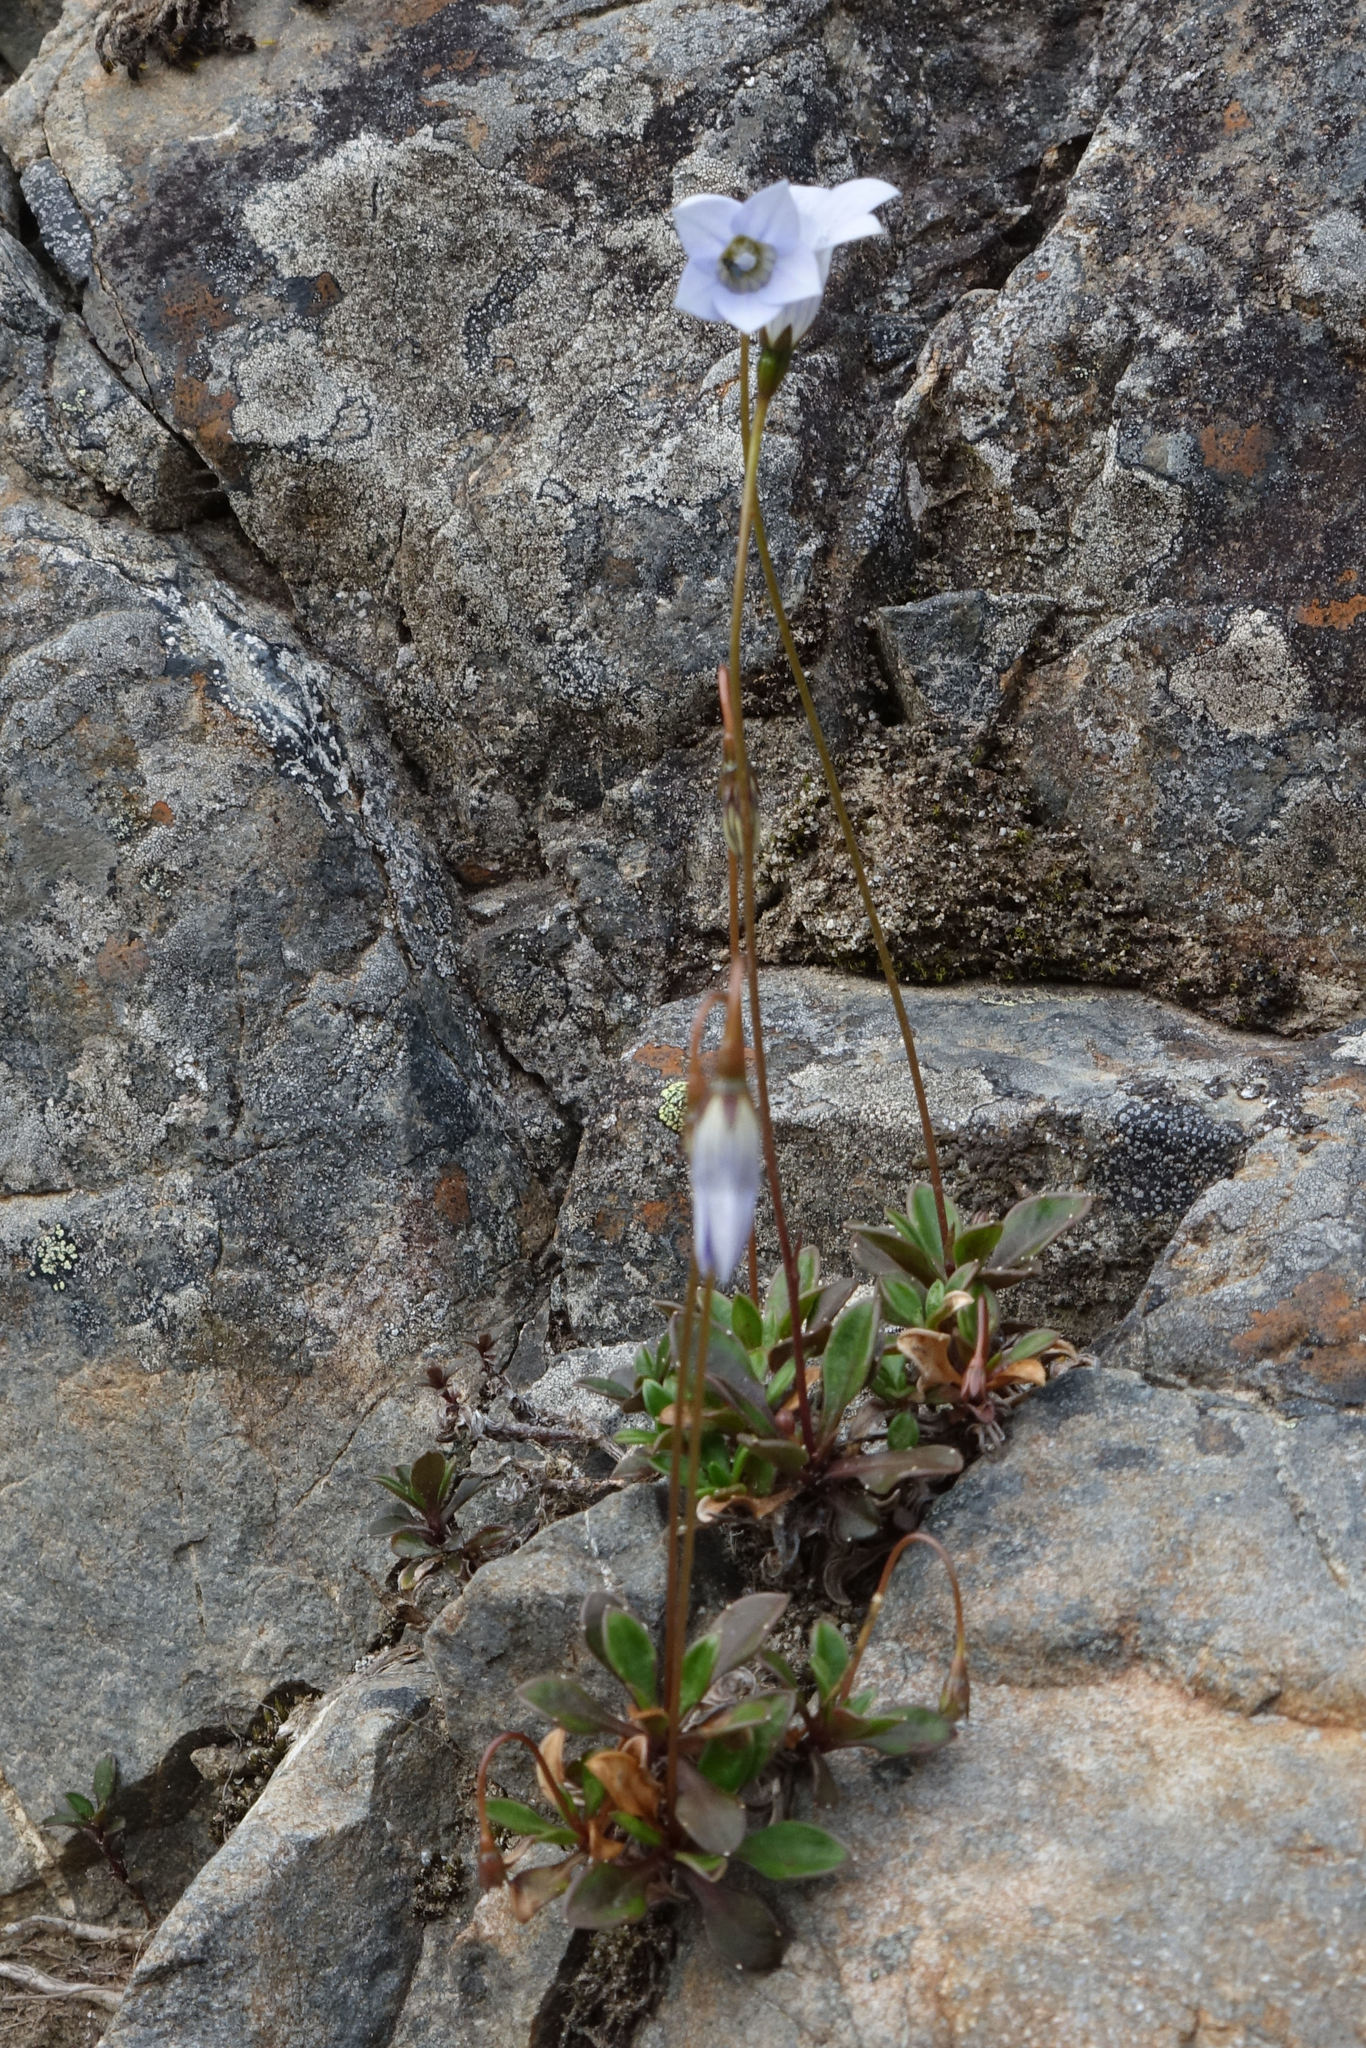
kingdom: Plantae
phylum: Tracheophyta
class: Magnoliopsida
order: Asterales
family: Campanulaceae
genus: Wahlenbergia
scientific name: Wahlenbergia albomarginata
